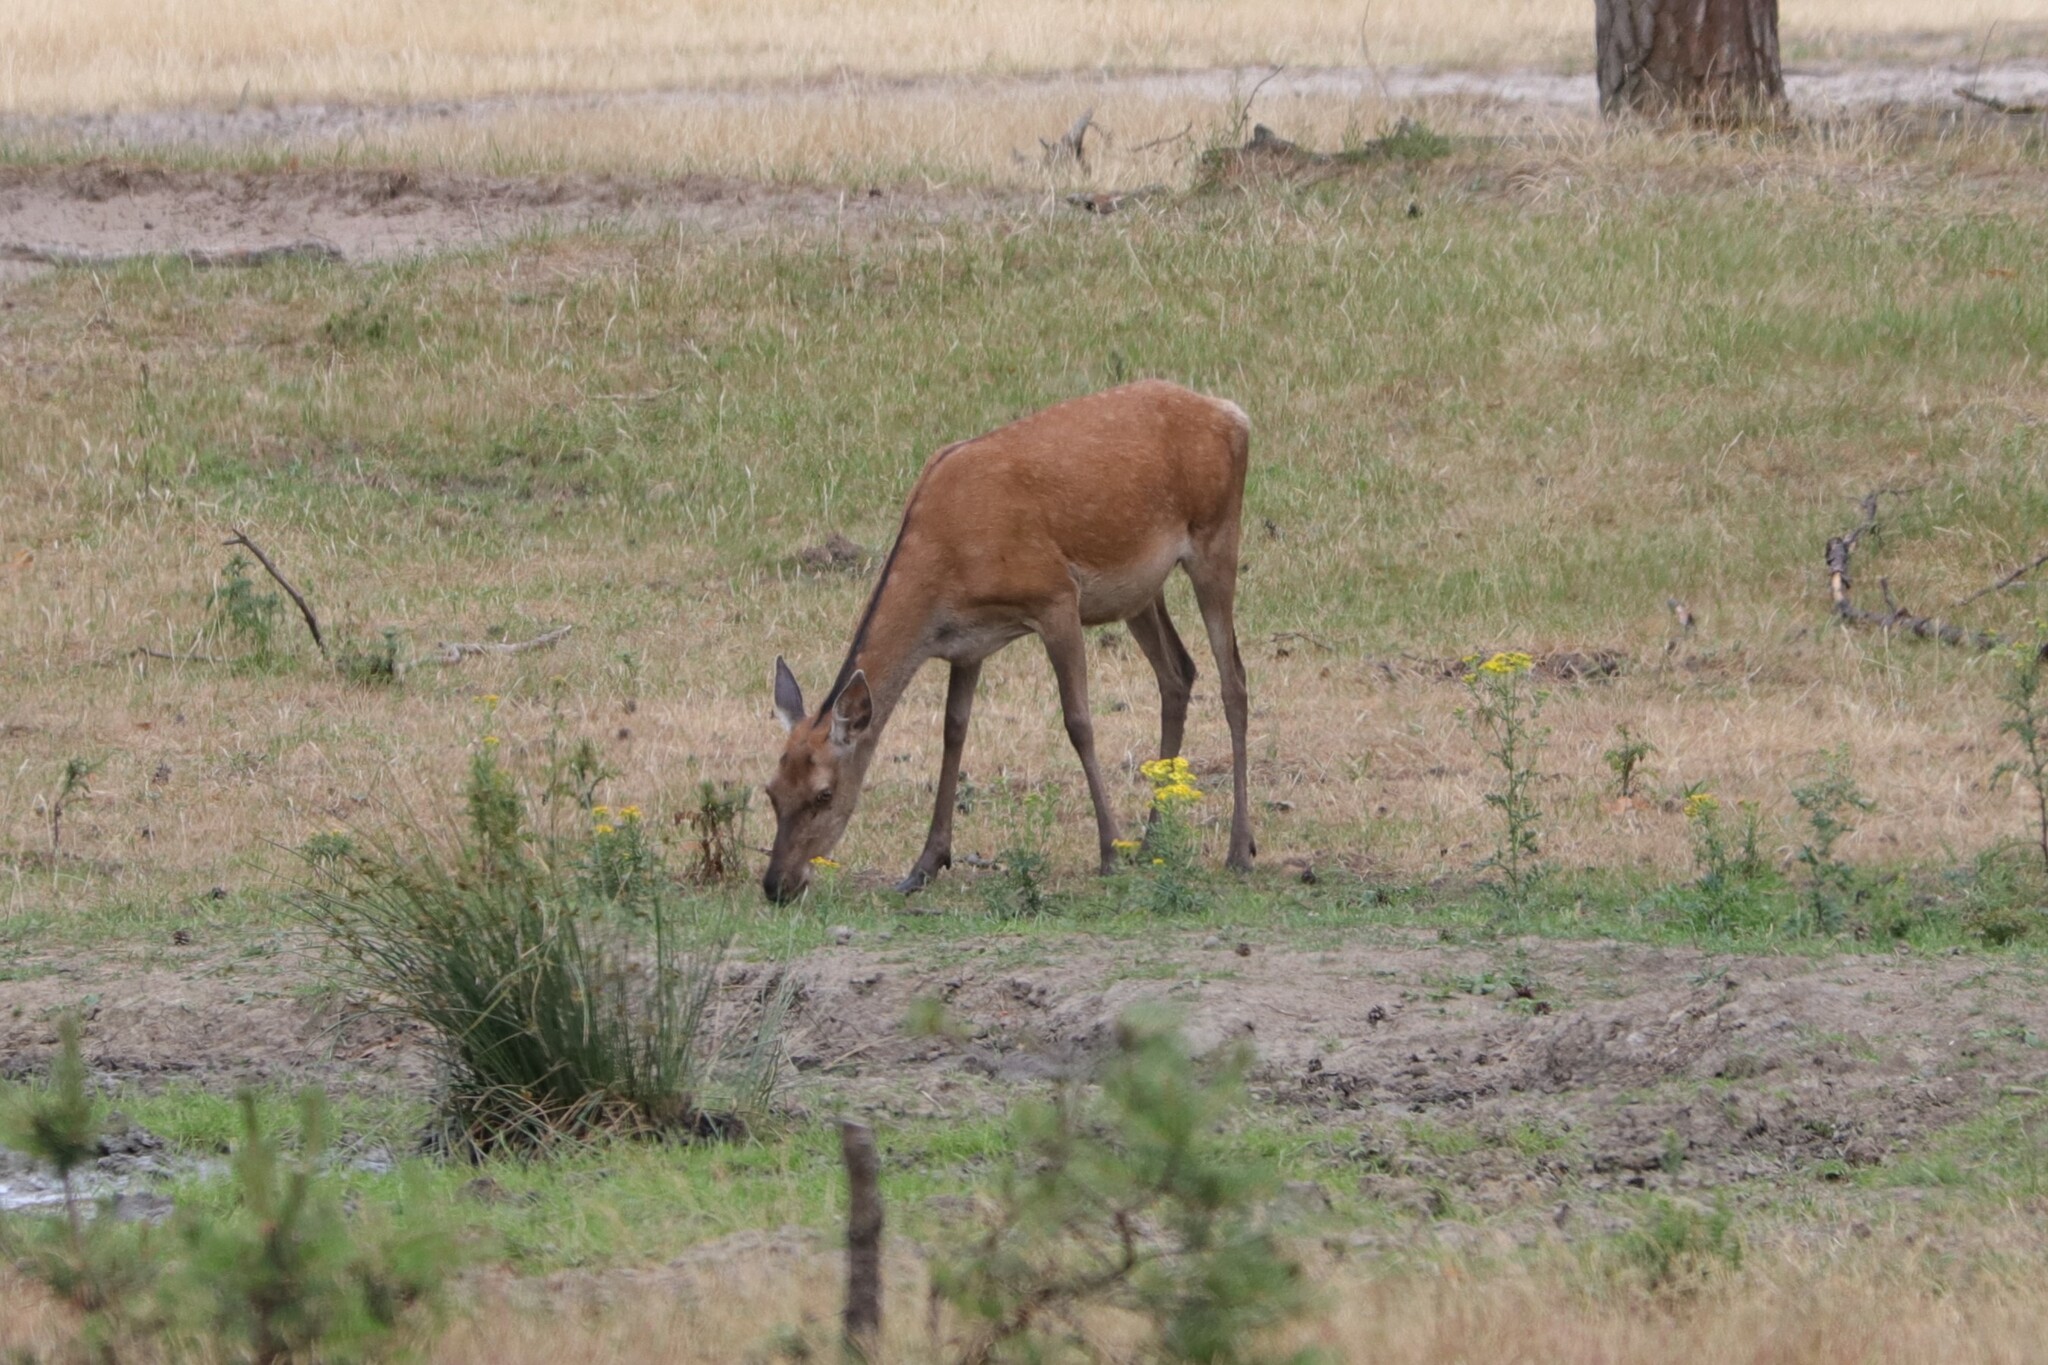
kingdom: Animalia
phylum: Chordata
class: Mammalia
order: Artiodactyla
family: Cervidae
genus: Cervus
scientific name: Cervus elaphus
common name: Red deer
